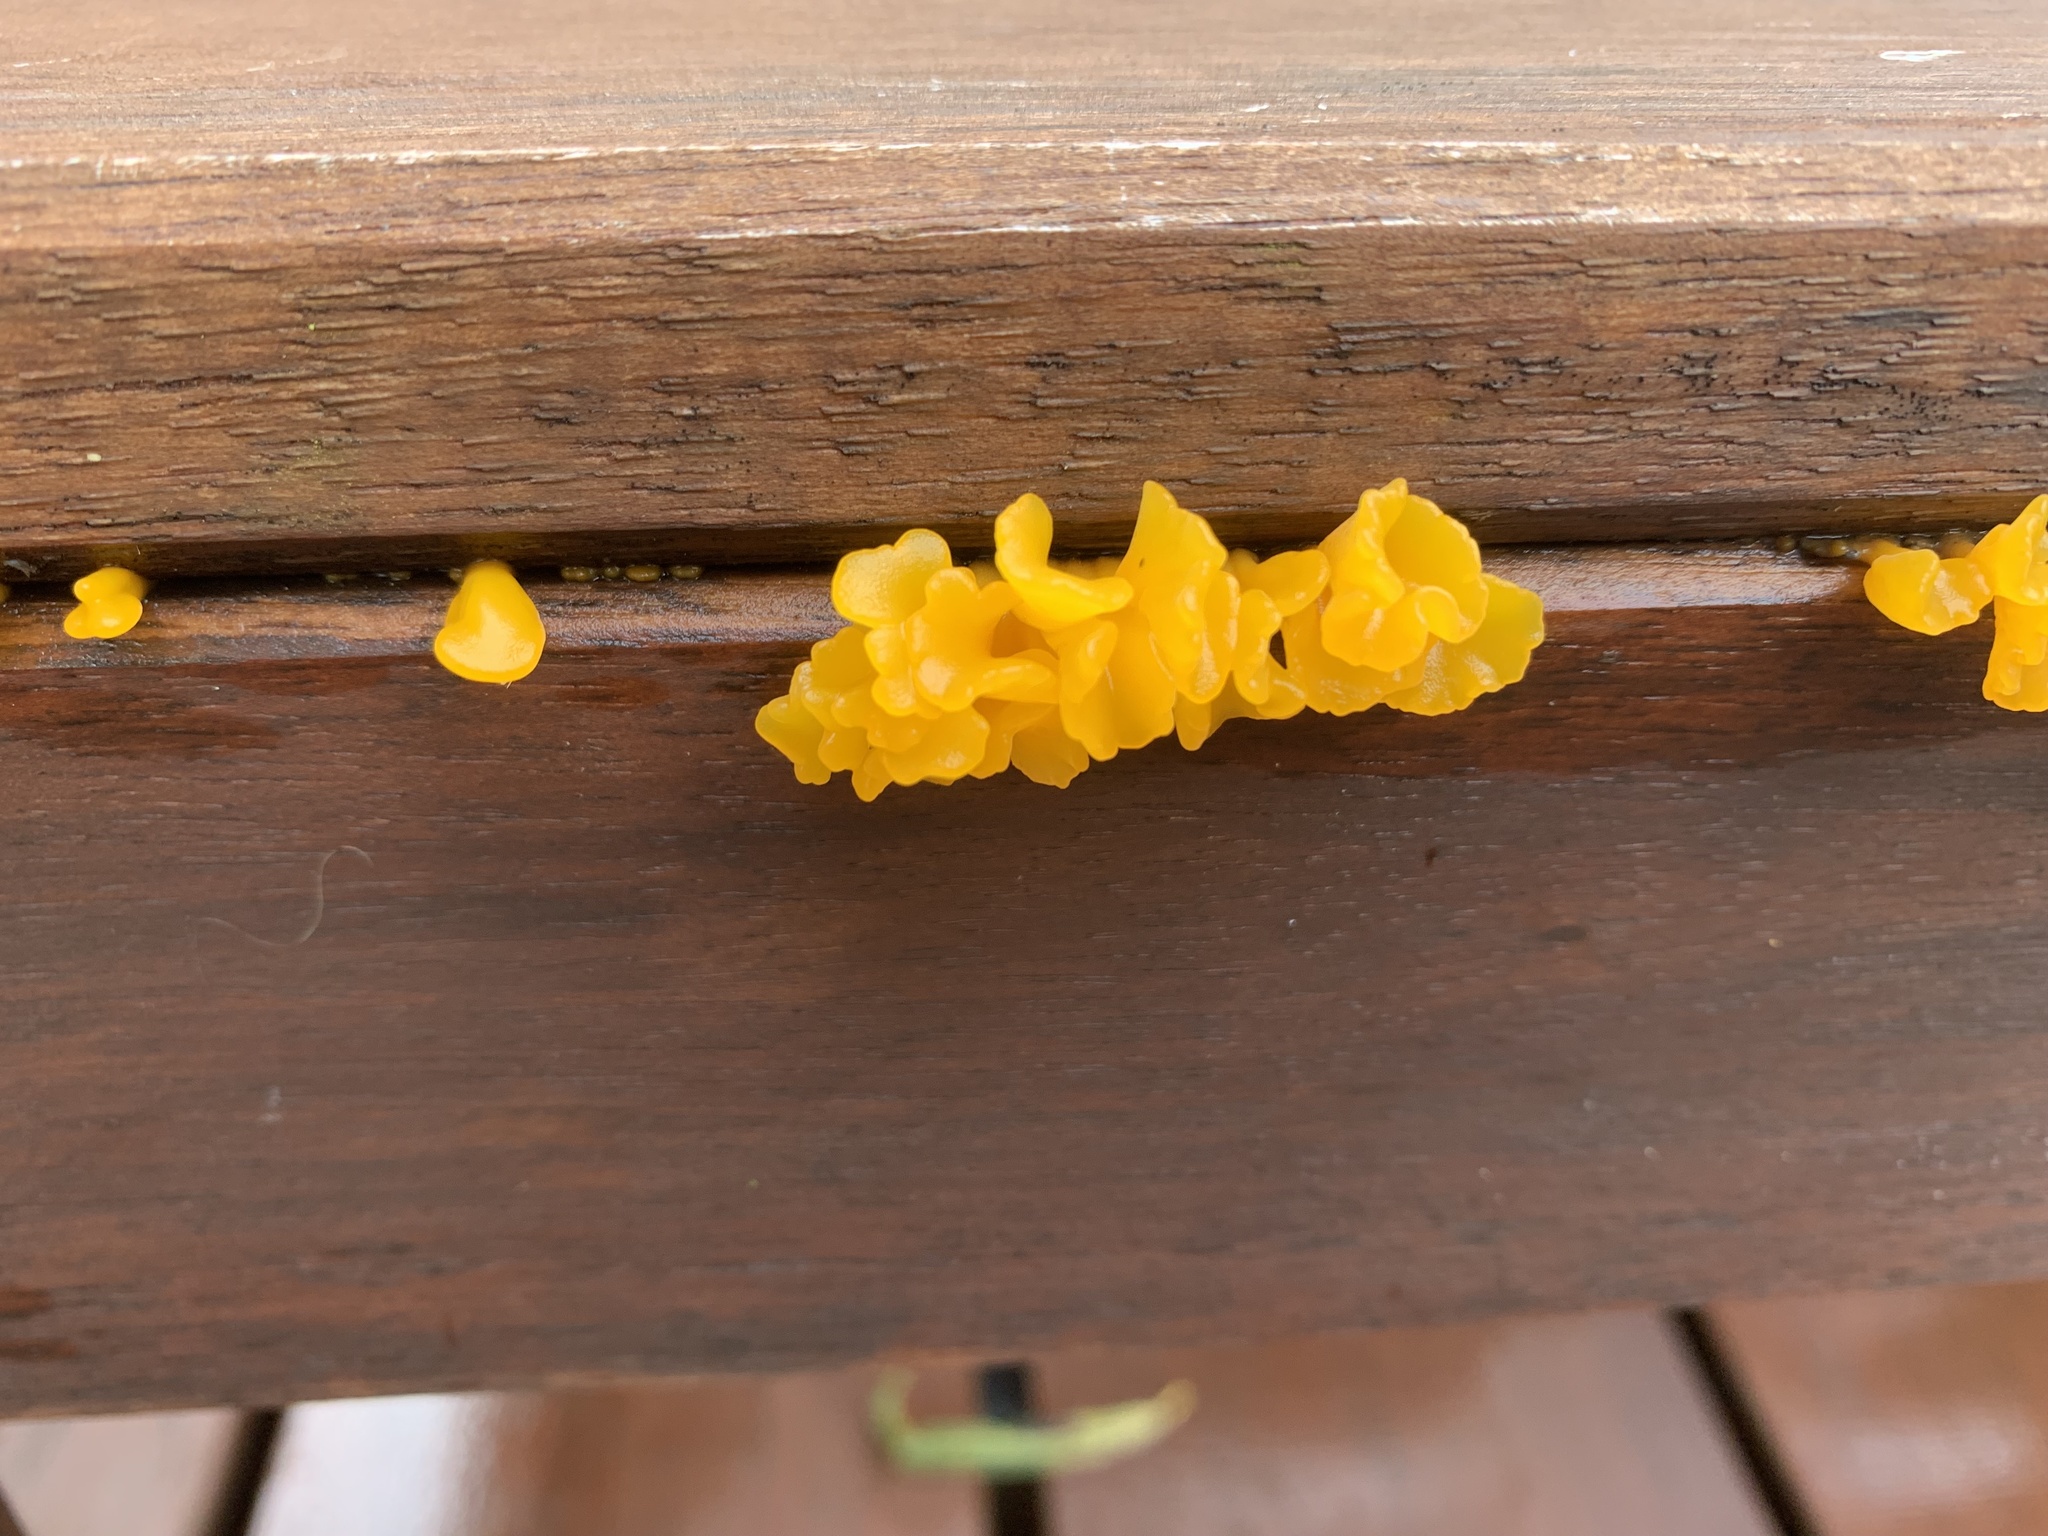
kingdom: Fungi
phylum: Basidiomycota
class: Dacrymycetes
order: Dacrymycetales
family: Dacrymycetaceae
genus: Dacrymyces
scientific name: Dacrymyces spathularius
